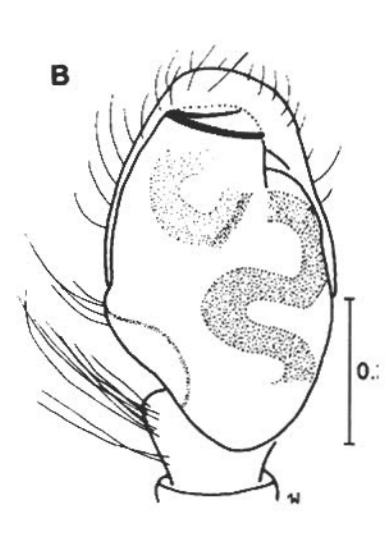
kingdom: Animalia
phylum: Arthropoda
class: Arachnida
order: Araneae
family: Salticidae
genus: Chalcoscirtus
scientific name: Chalcoscirtus karakurt
